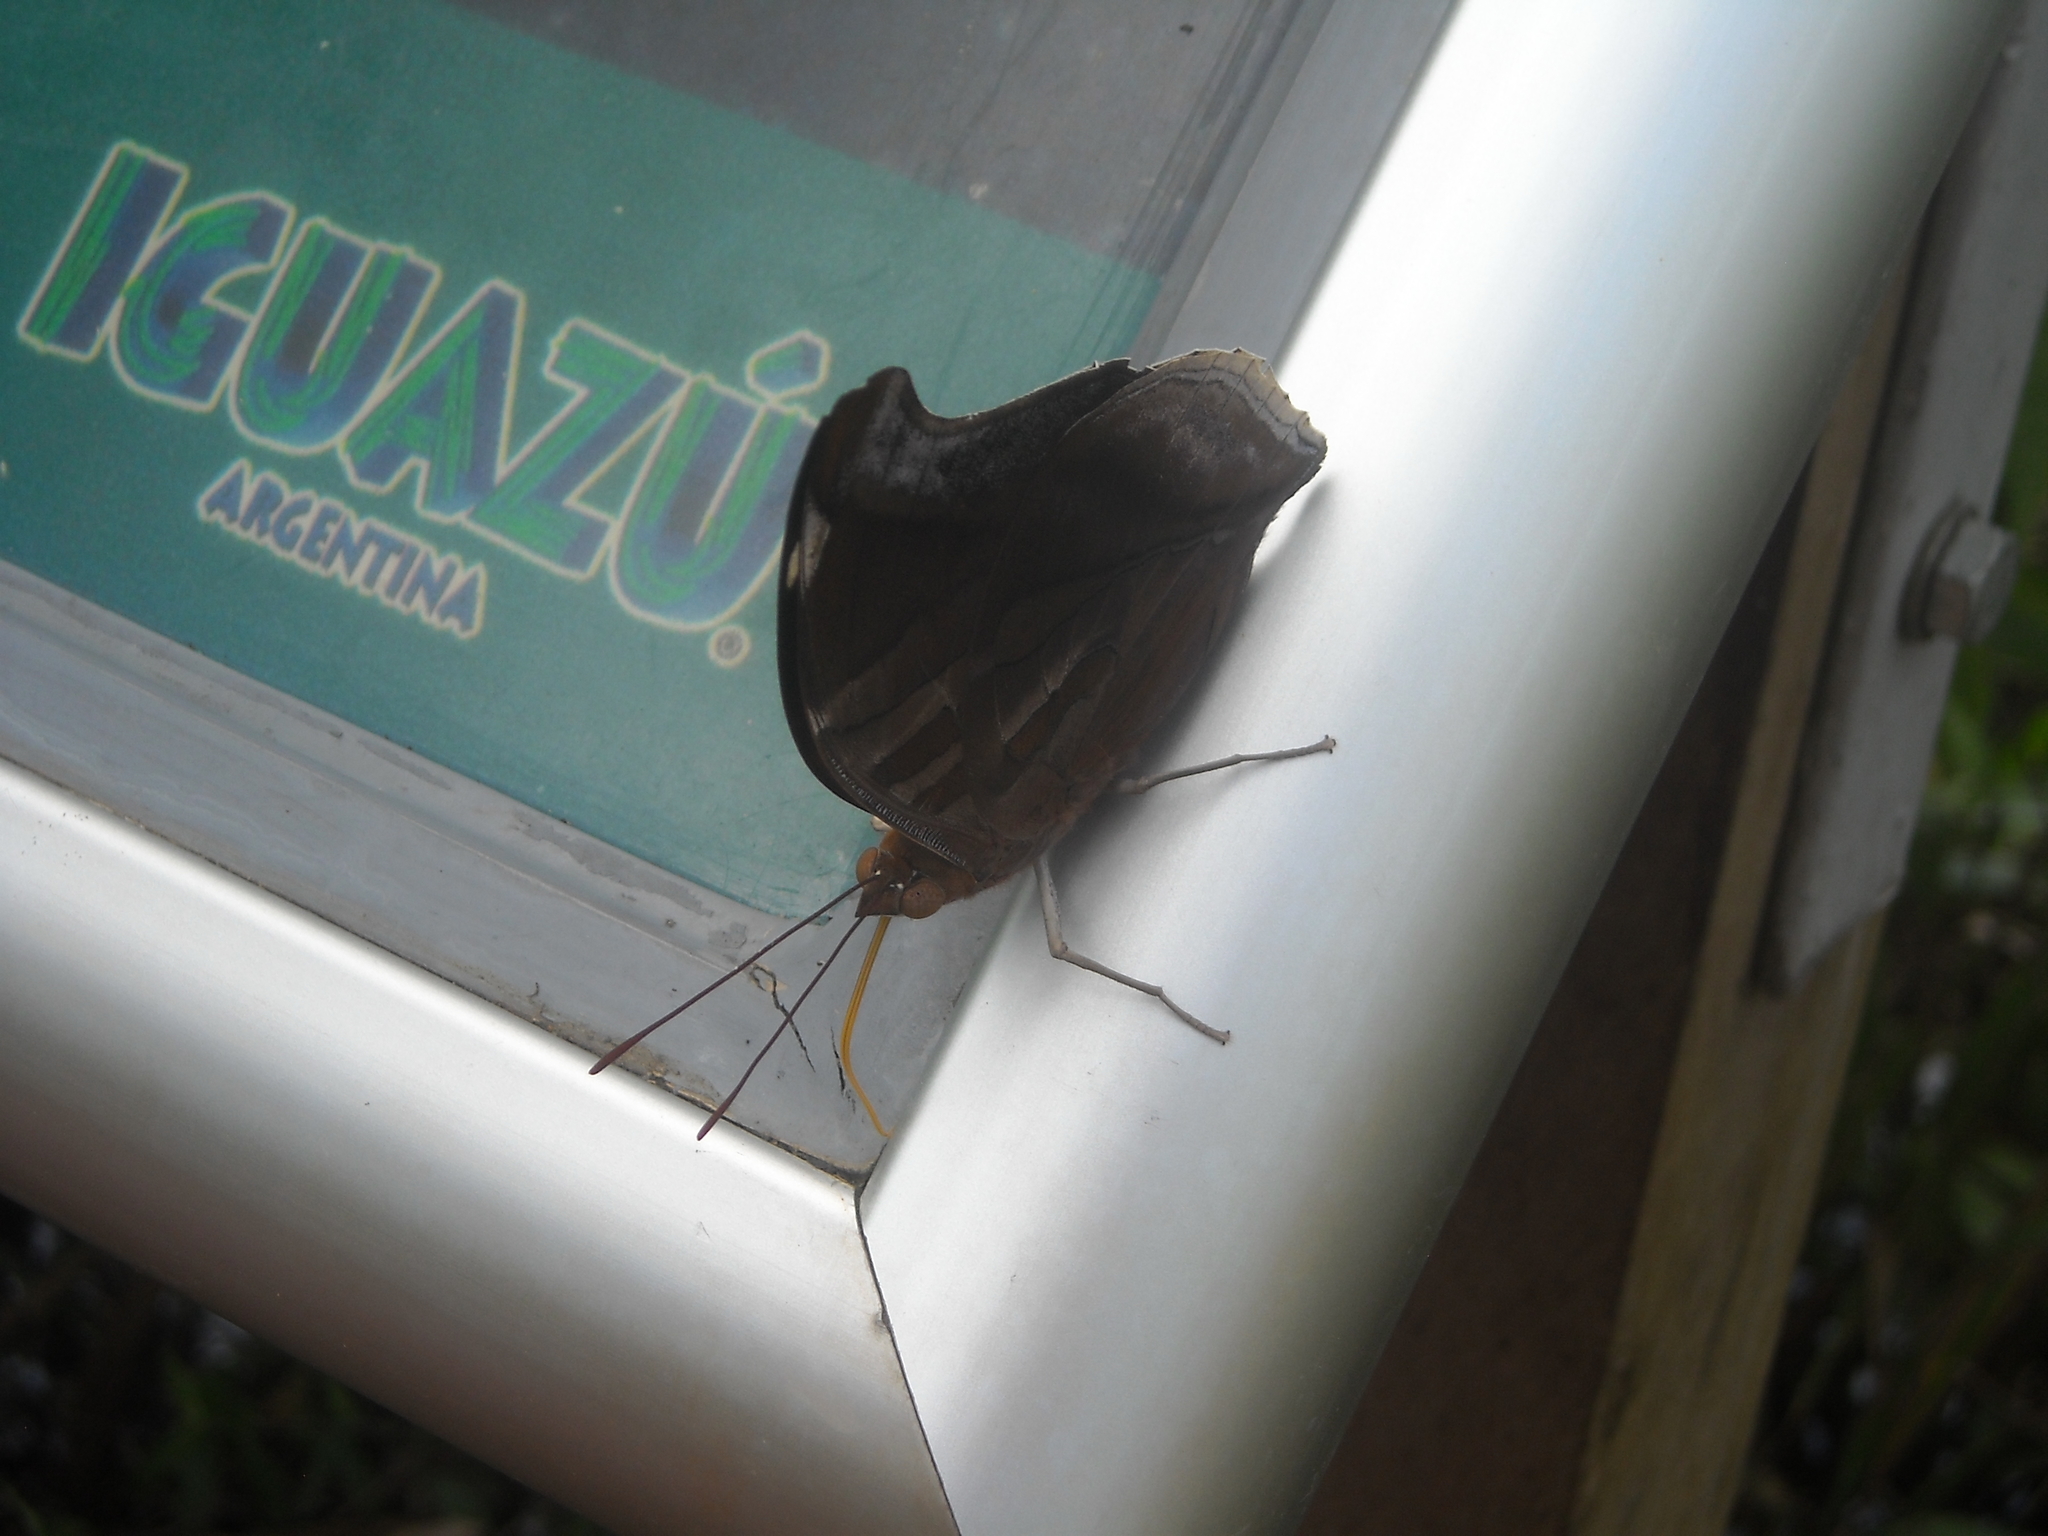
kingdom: Animalia
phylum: Arthropoda
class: Insecta
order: Lepidoptera
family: Nymphalidae
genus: Historis
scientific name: Historis odius
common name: Orion cecropian
